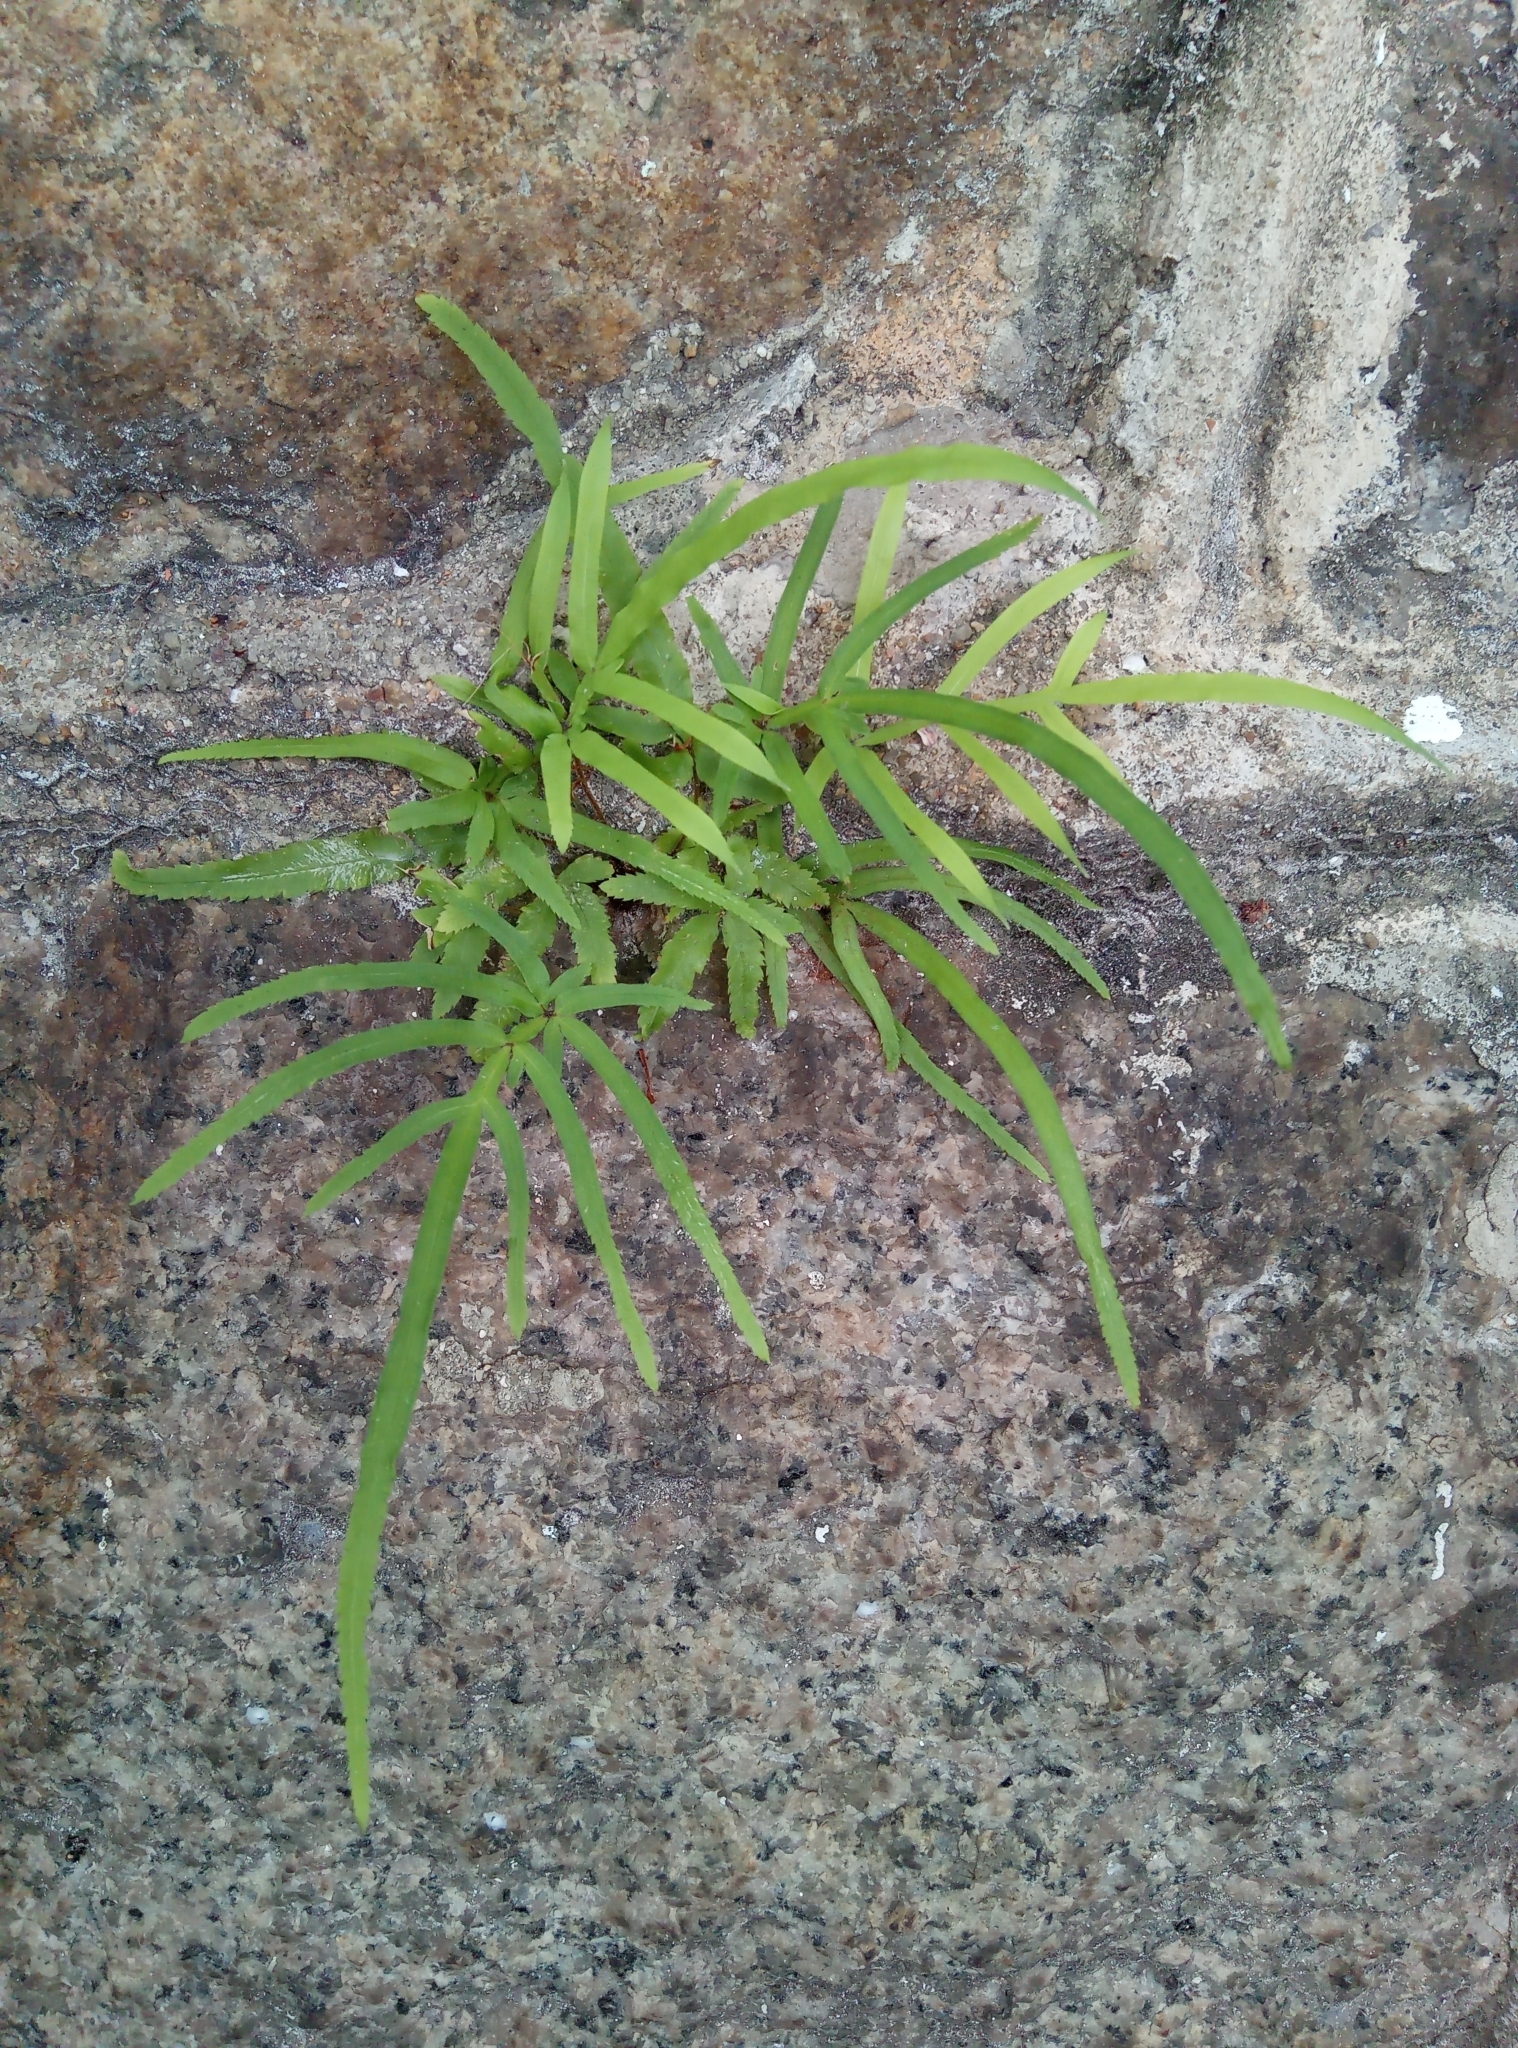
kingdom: Plantae
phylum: Tracheophyta
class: Polypodiopsida
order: Polypodiales
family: Pteridaceae
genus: Pteris
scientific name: Pteris multifida
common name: Spider brake
